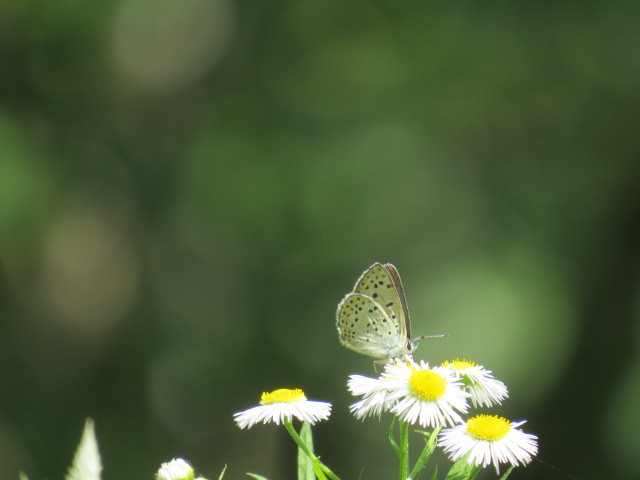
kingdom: Animalia
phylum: Arthropoda
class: Insecta
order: Lepidoptera
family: Lycaenidae
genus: Loweia
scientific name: Loweia tityrus
